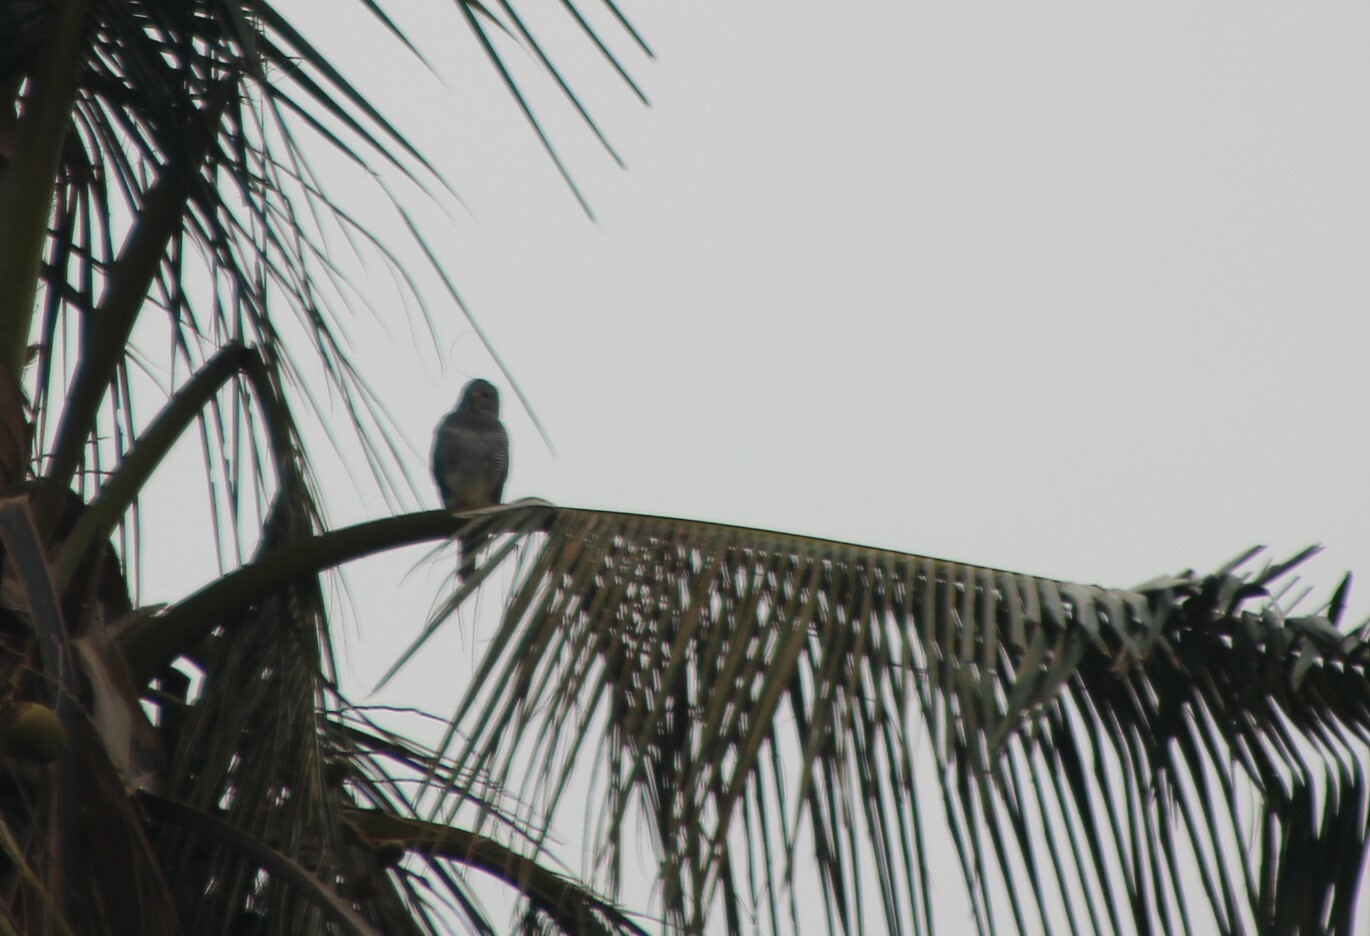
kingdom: Animalia
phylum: Chordata
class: Aves
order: Accipitriformes
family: Accipitridae
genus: Kaupifalco
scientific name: Kaupifalco monogrammicus
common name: Lizard buzzard
